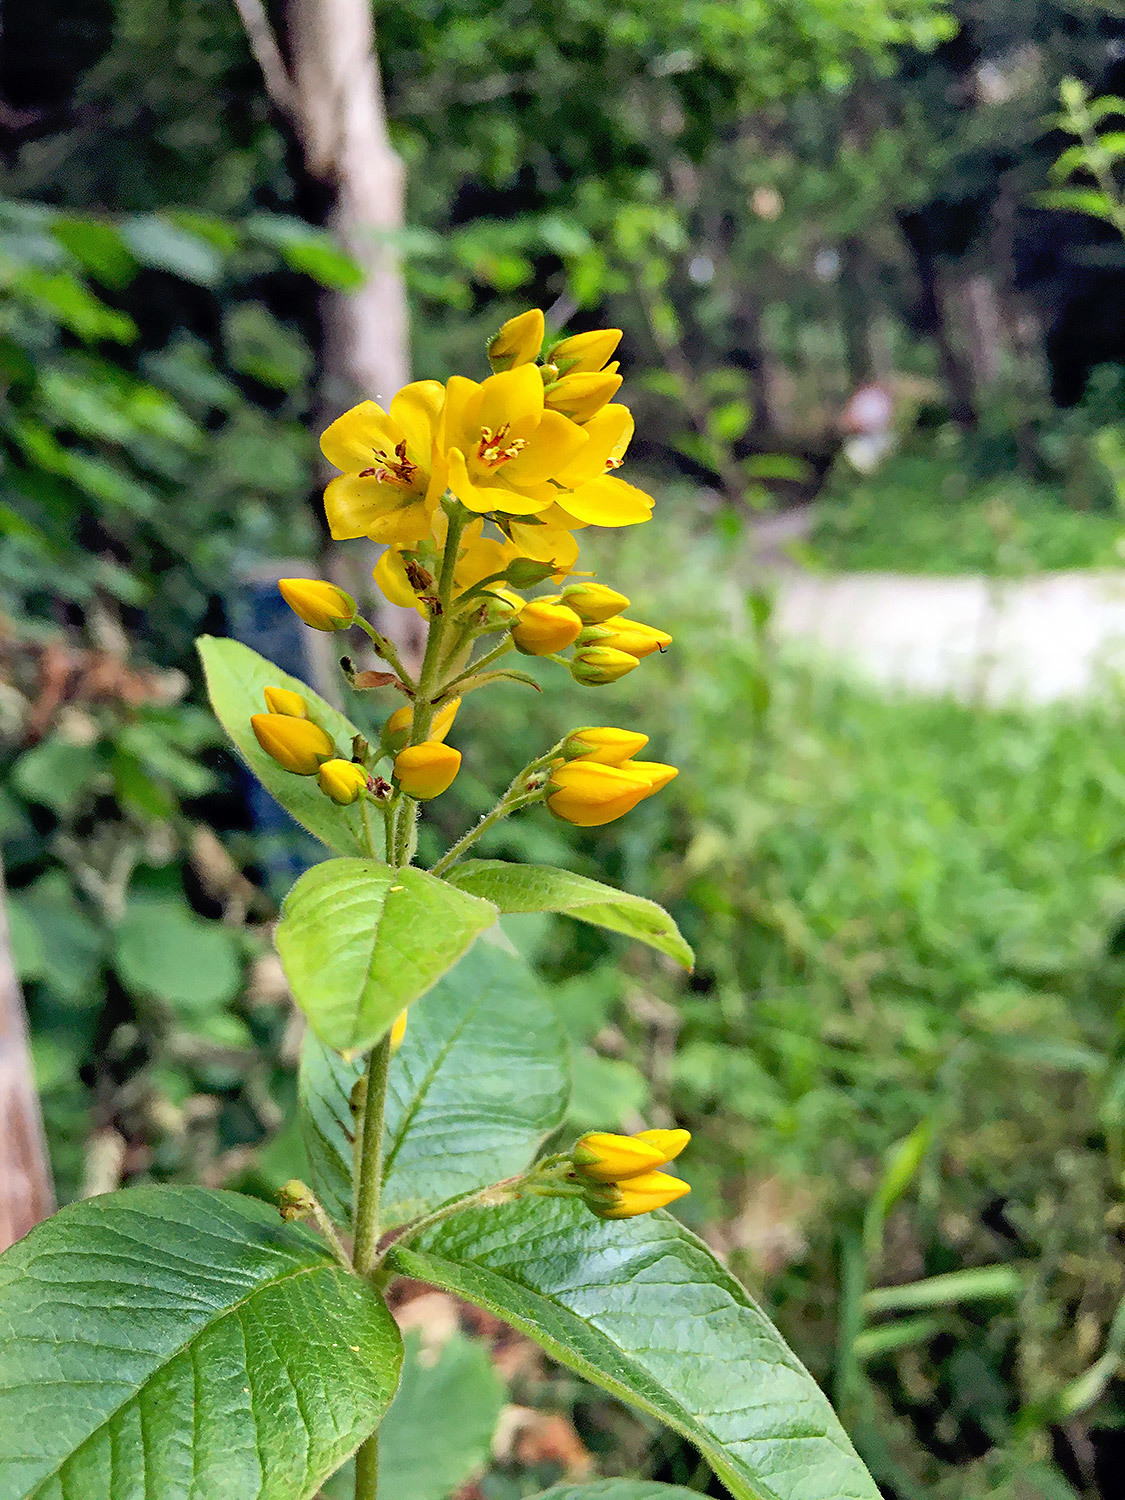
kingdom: Plantae
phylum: Tracheophyta
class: Magnoliopsida
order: Ericales
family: Primulaceae
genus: Lysimachia
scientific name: Lysimachia vulgaris
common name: Yellow loosestrife
